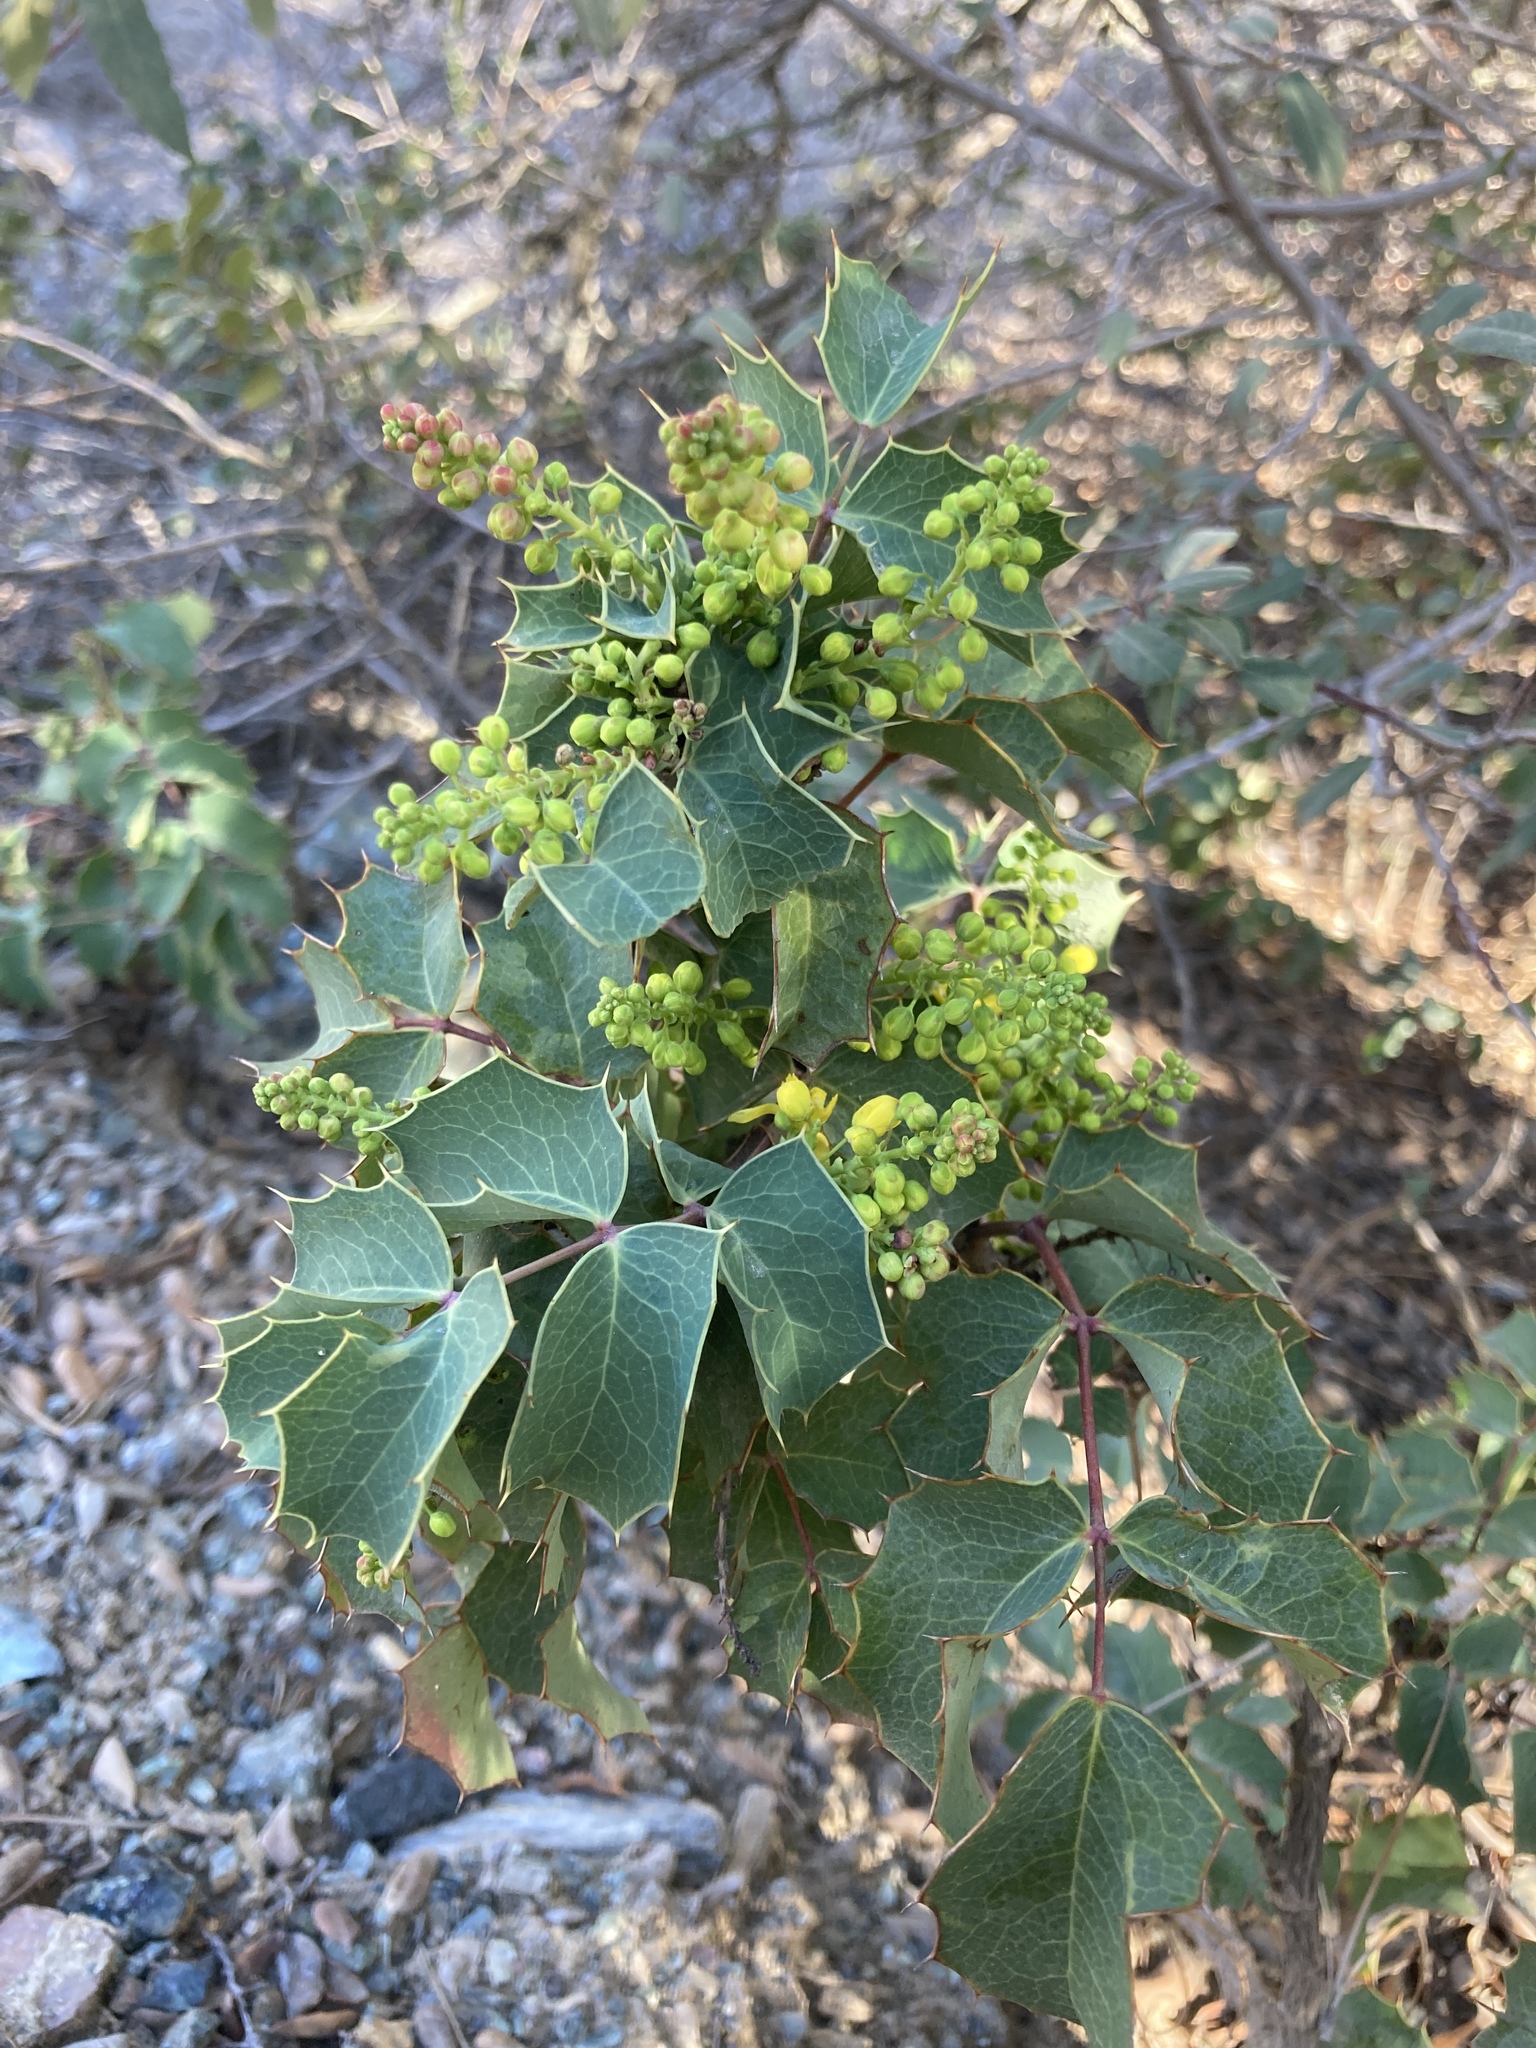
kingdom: Plantae
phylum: Tracheophyta
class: Magnoliopsida
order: Ranunculales
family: Berberidaceae
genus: Mahonia
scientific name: Mahonia dictyota
